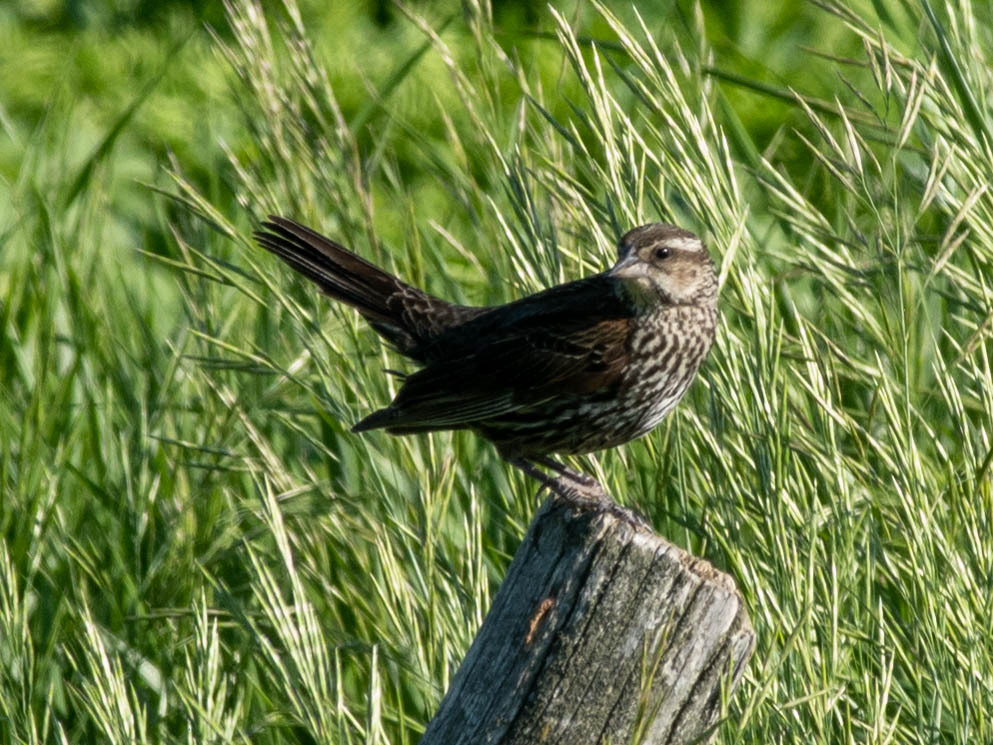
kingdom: Animalia
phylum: Chordata
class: Aves
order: Passeriformes
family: Icteridae
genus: Agelaius
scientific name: Agelaius phoeniceus
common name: Red-winged blackbird
